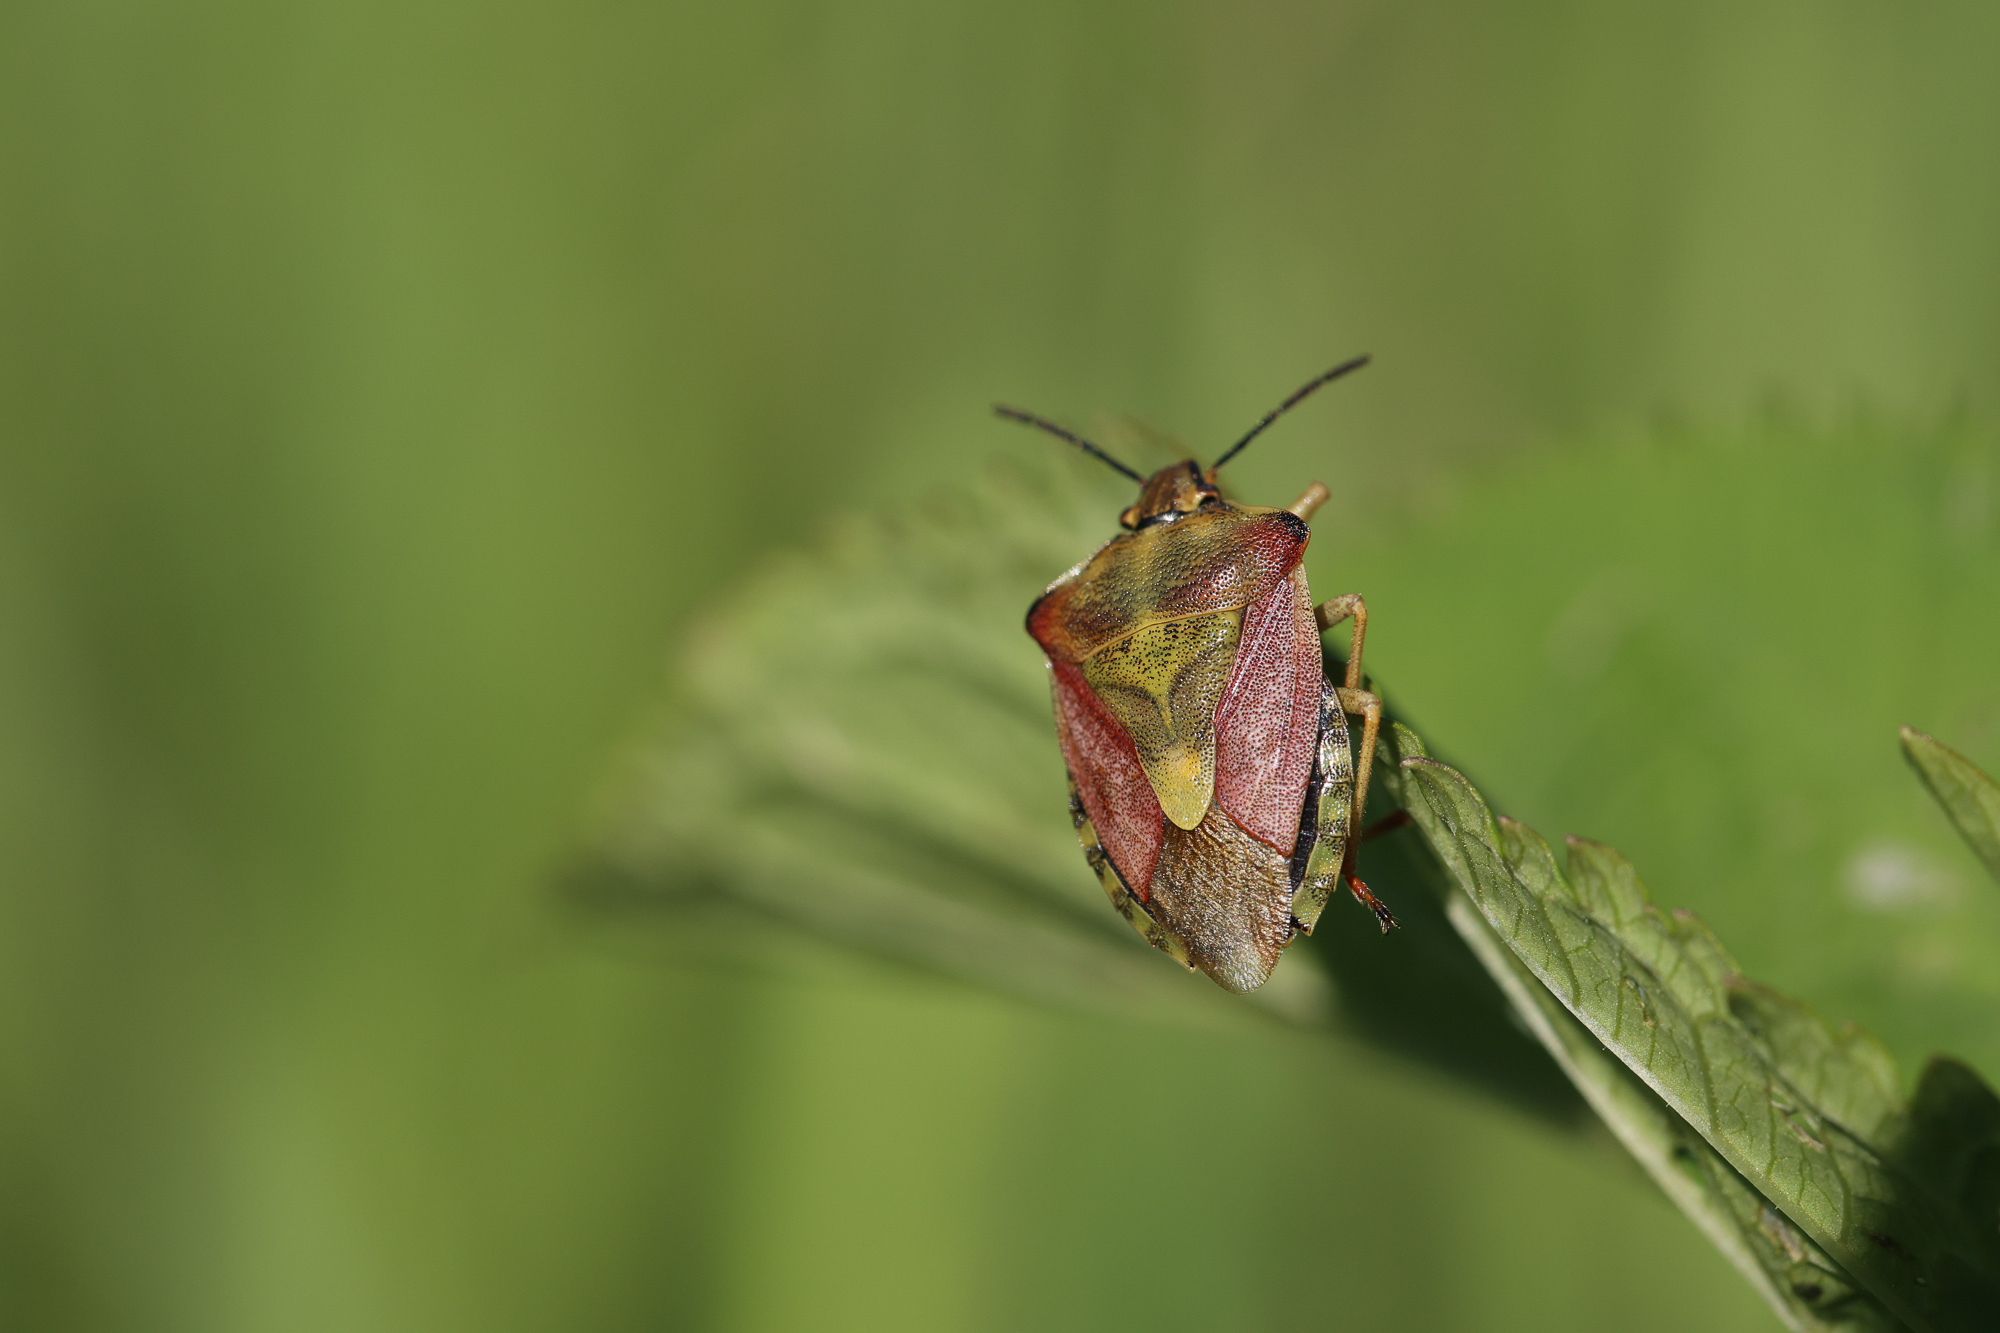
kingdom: Animalia
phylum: Arthropoda
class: Insecta
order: Hemiptera
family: Pentatomidae
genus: Carpocoris
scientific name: Carpocoris purpureipennis
